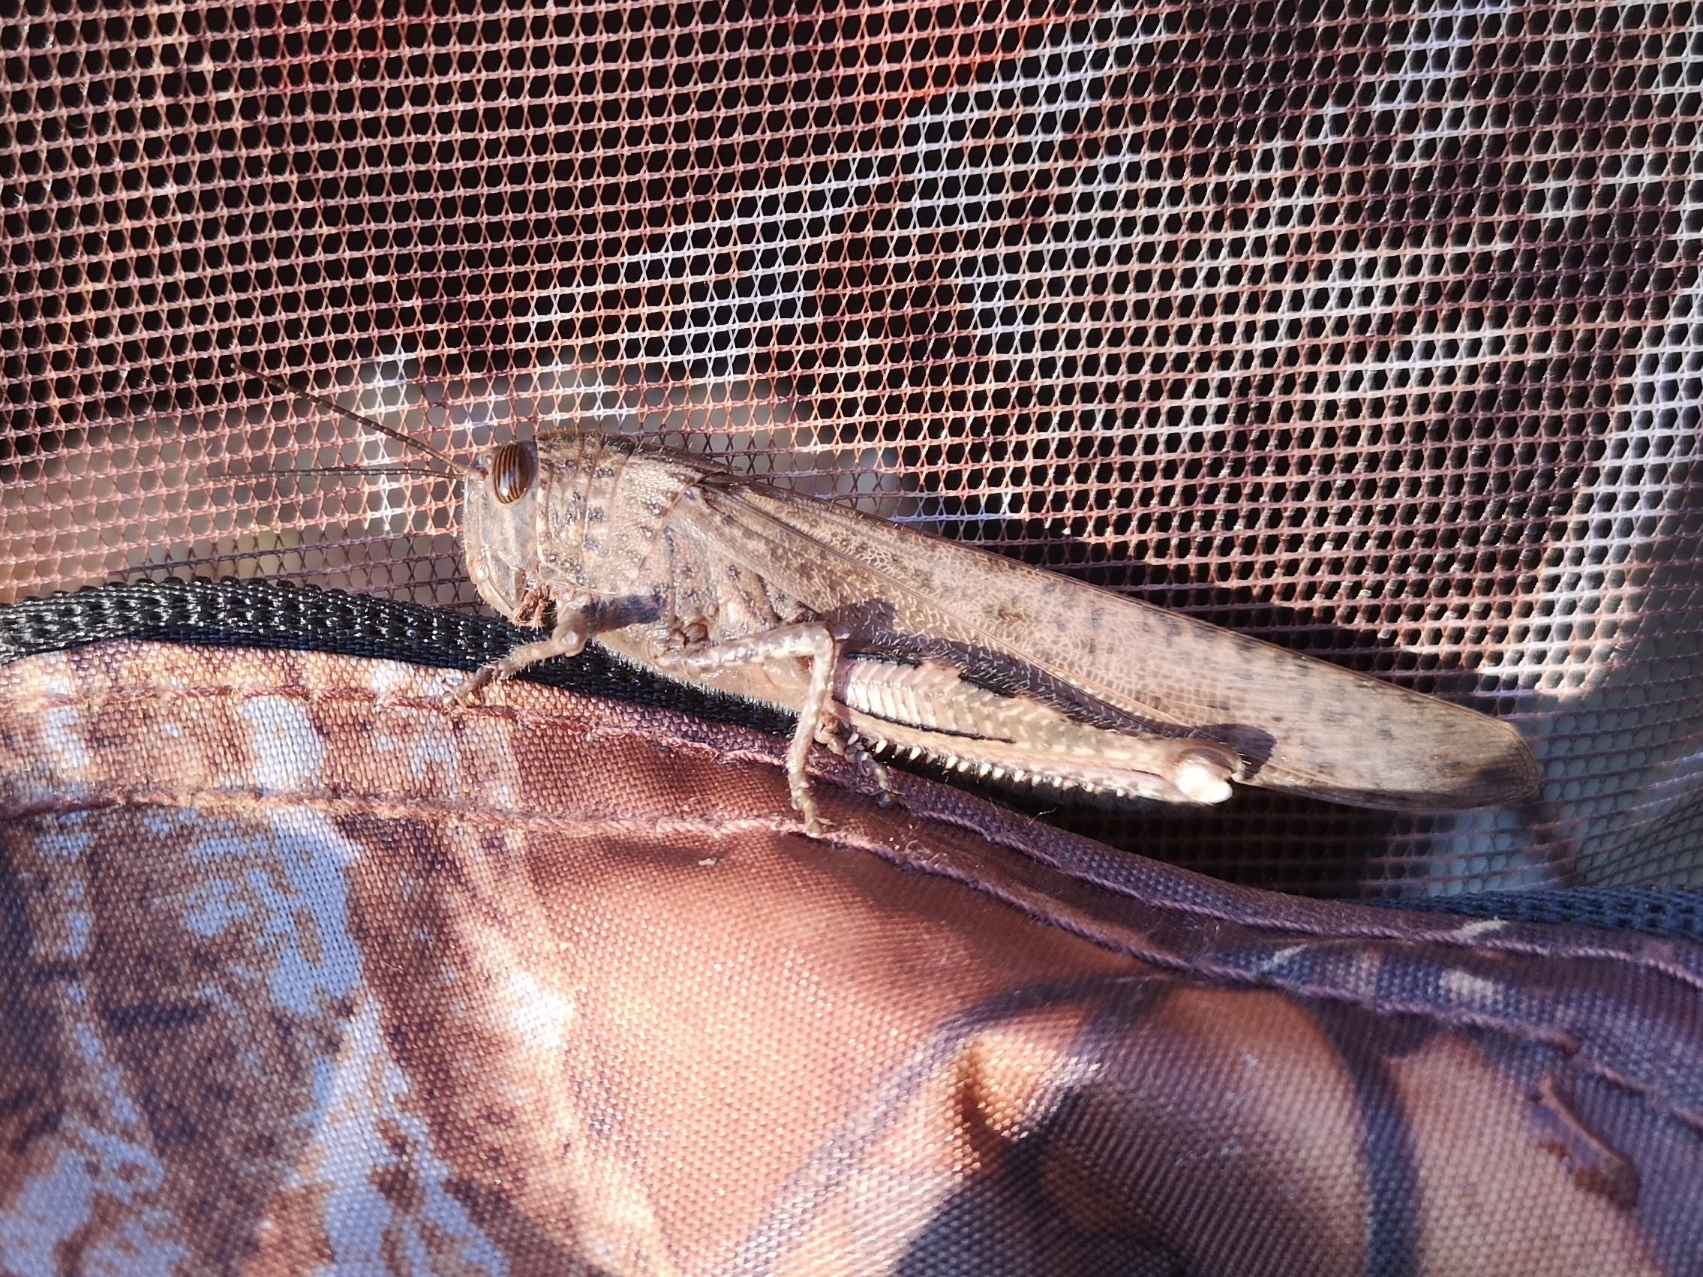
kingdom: Animalia
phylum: Arthropoda
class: Insecta
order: Orthoptera
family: Acrididae
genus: Anacridium
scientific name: Anacridium aegyptium
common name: Egyptian grasshopper
